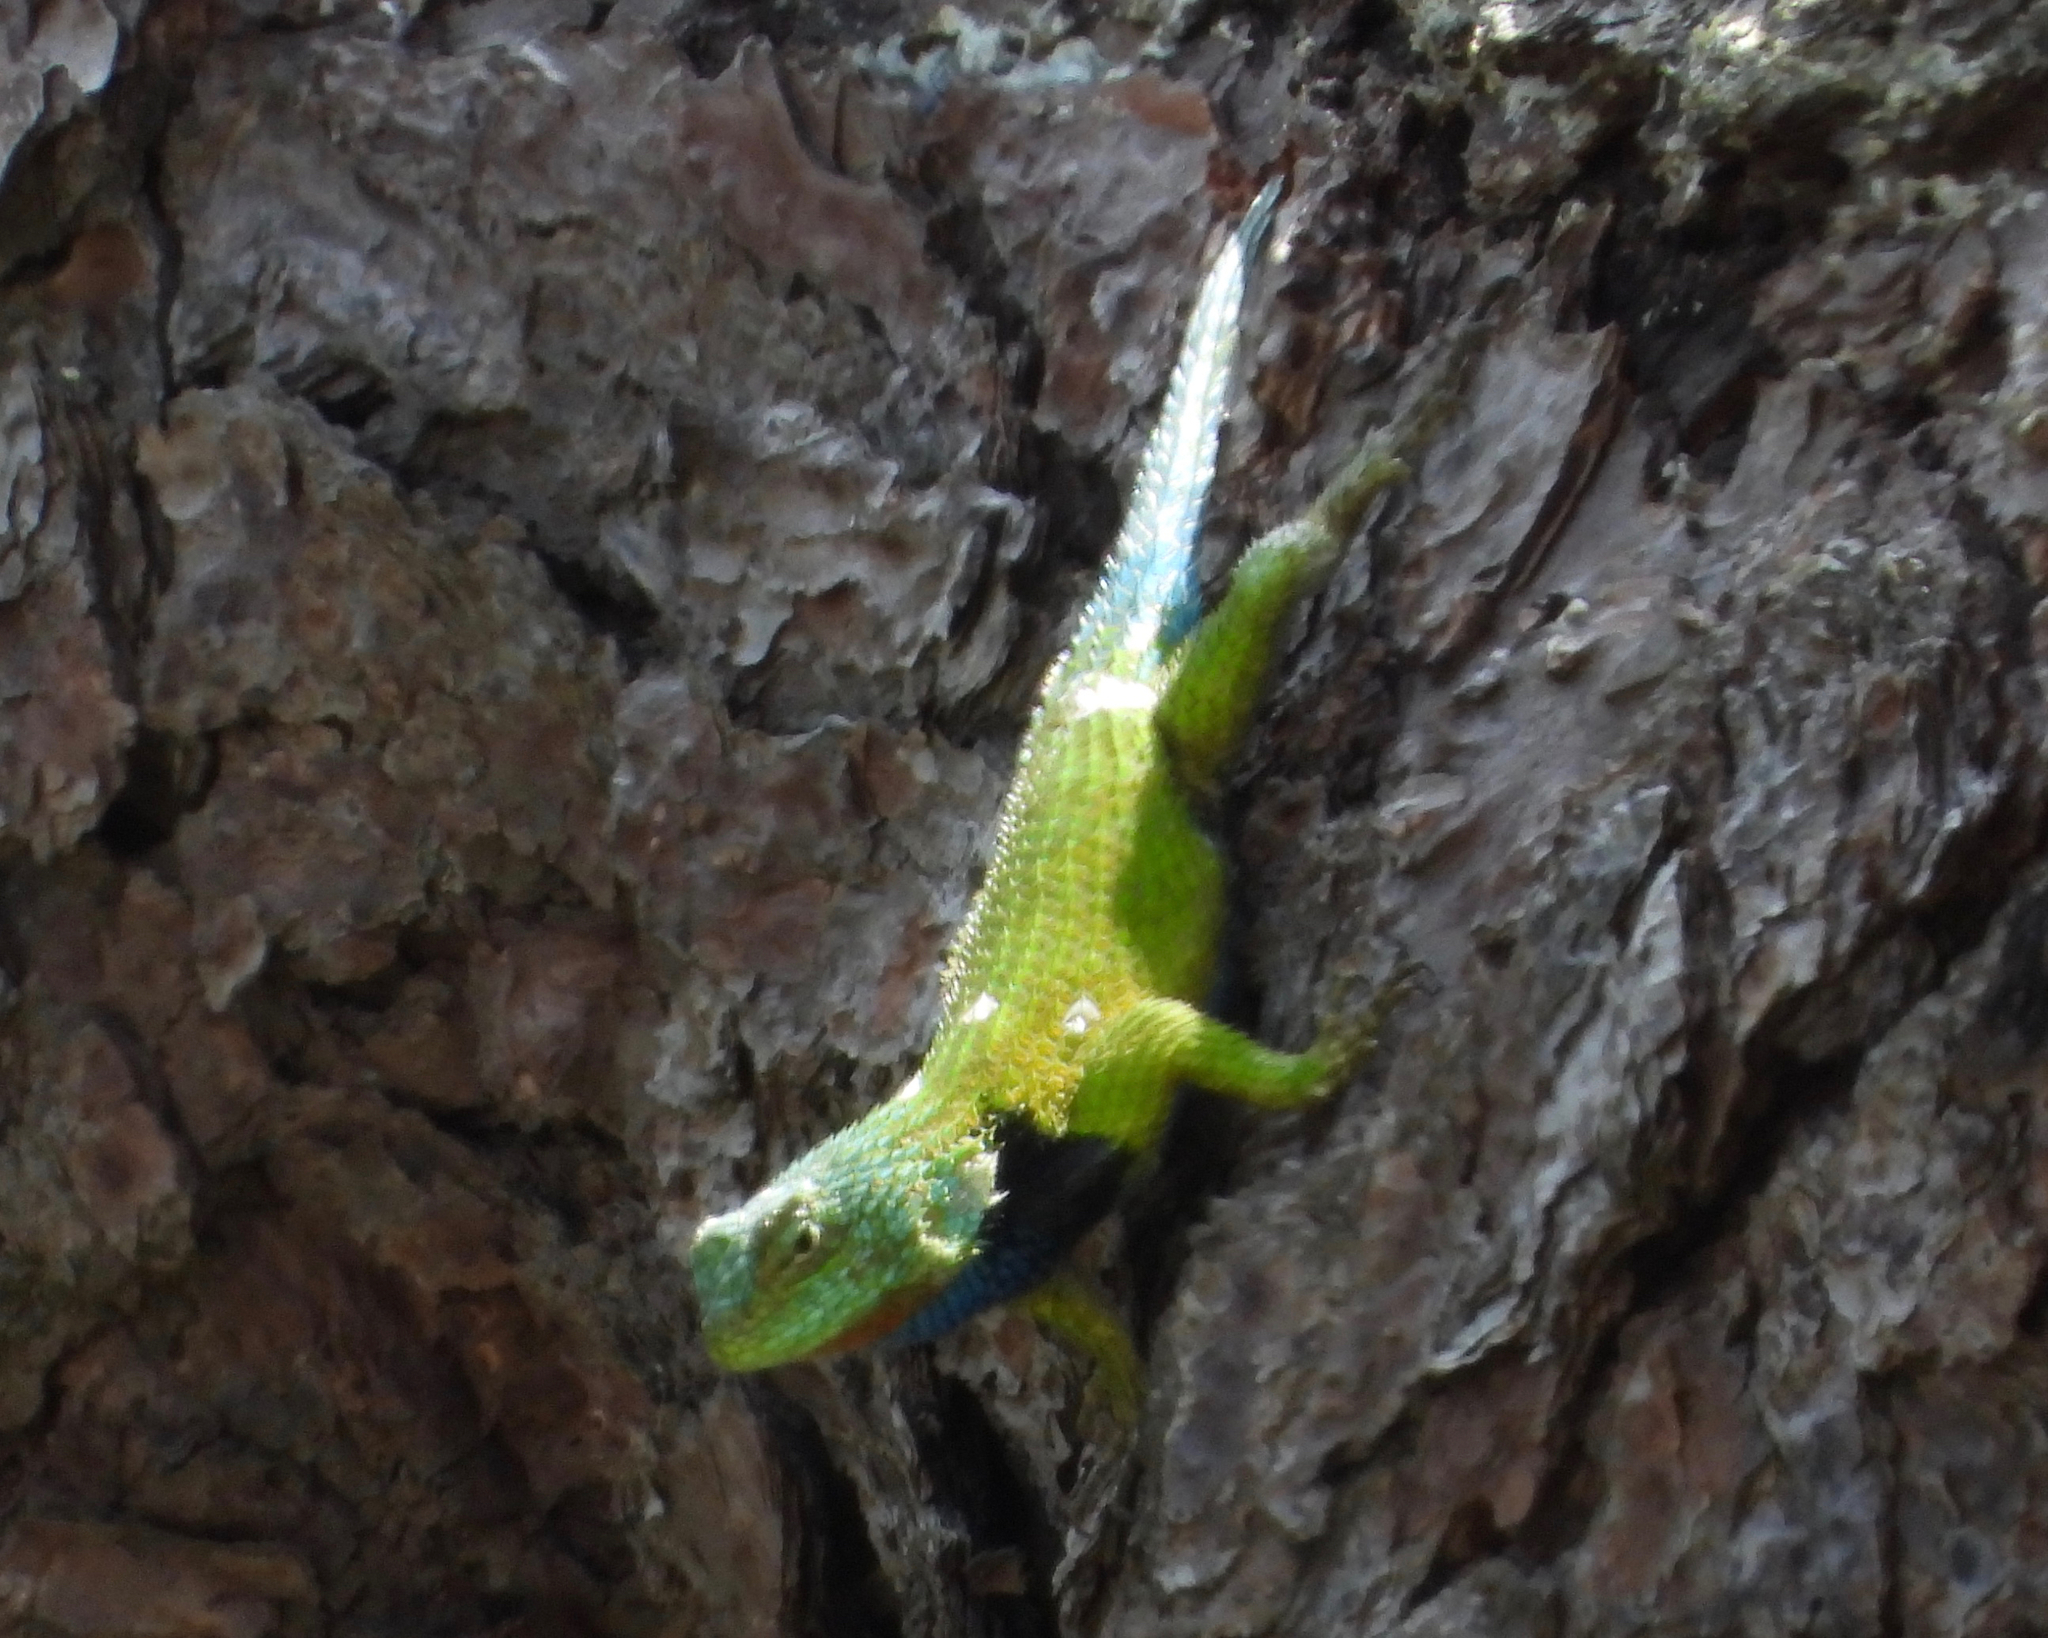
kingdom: Animalia
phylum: Chordata
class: Squamata
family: Phrynosomatidae
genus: Sceloporus
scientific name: Sceloporus smaragdinus
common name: Bocourt’s emerald lizard
